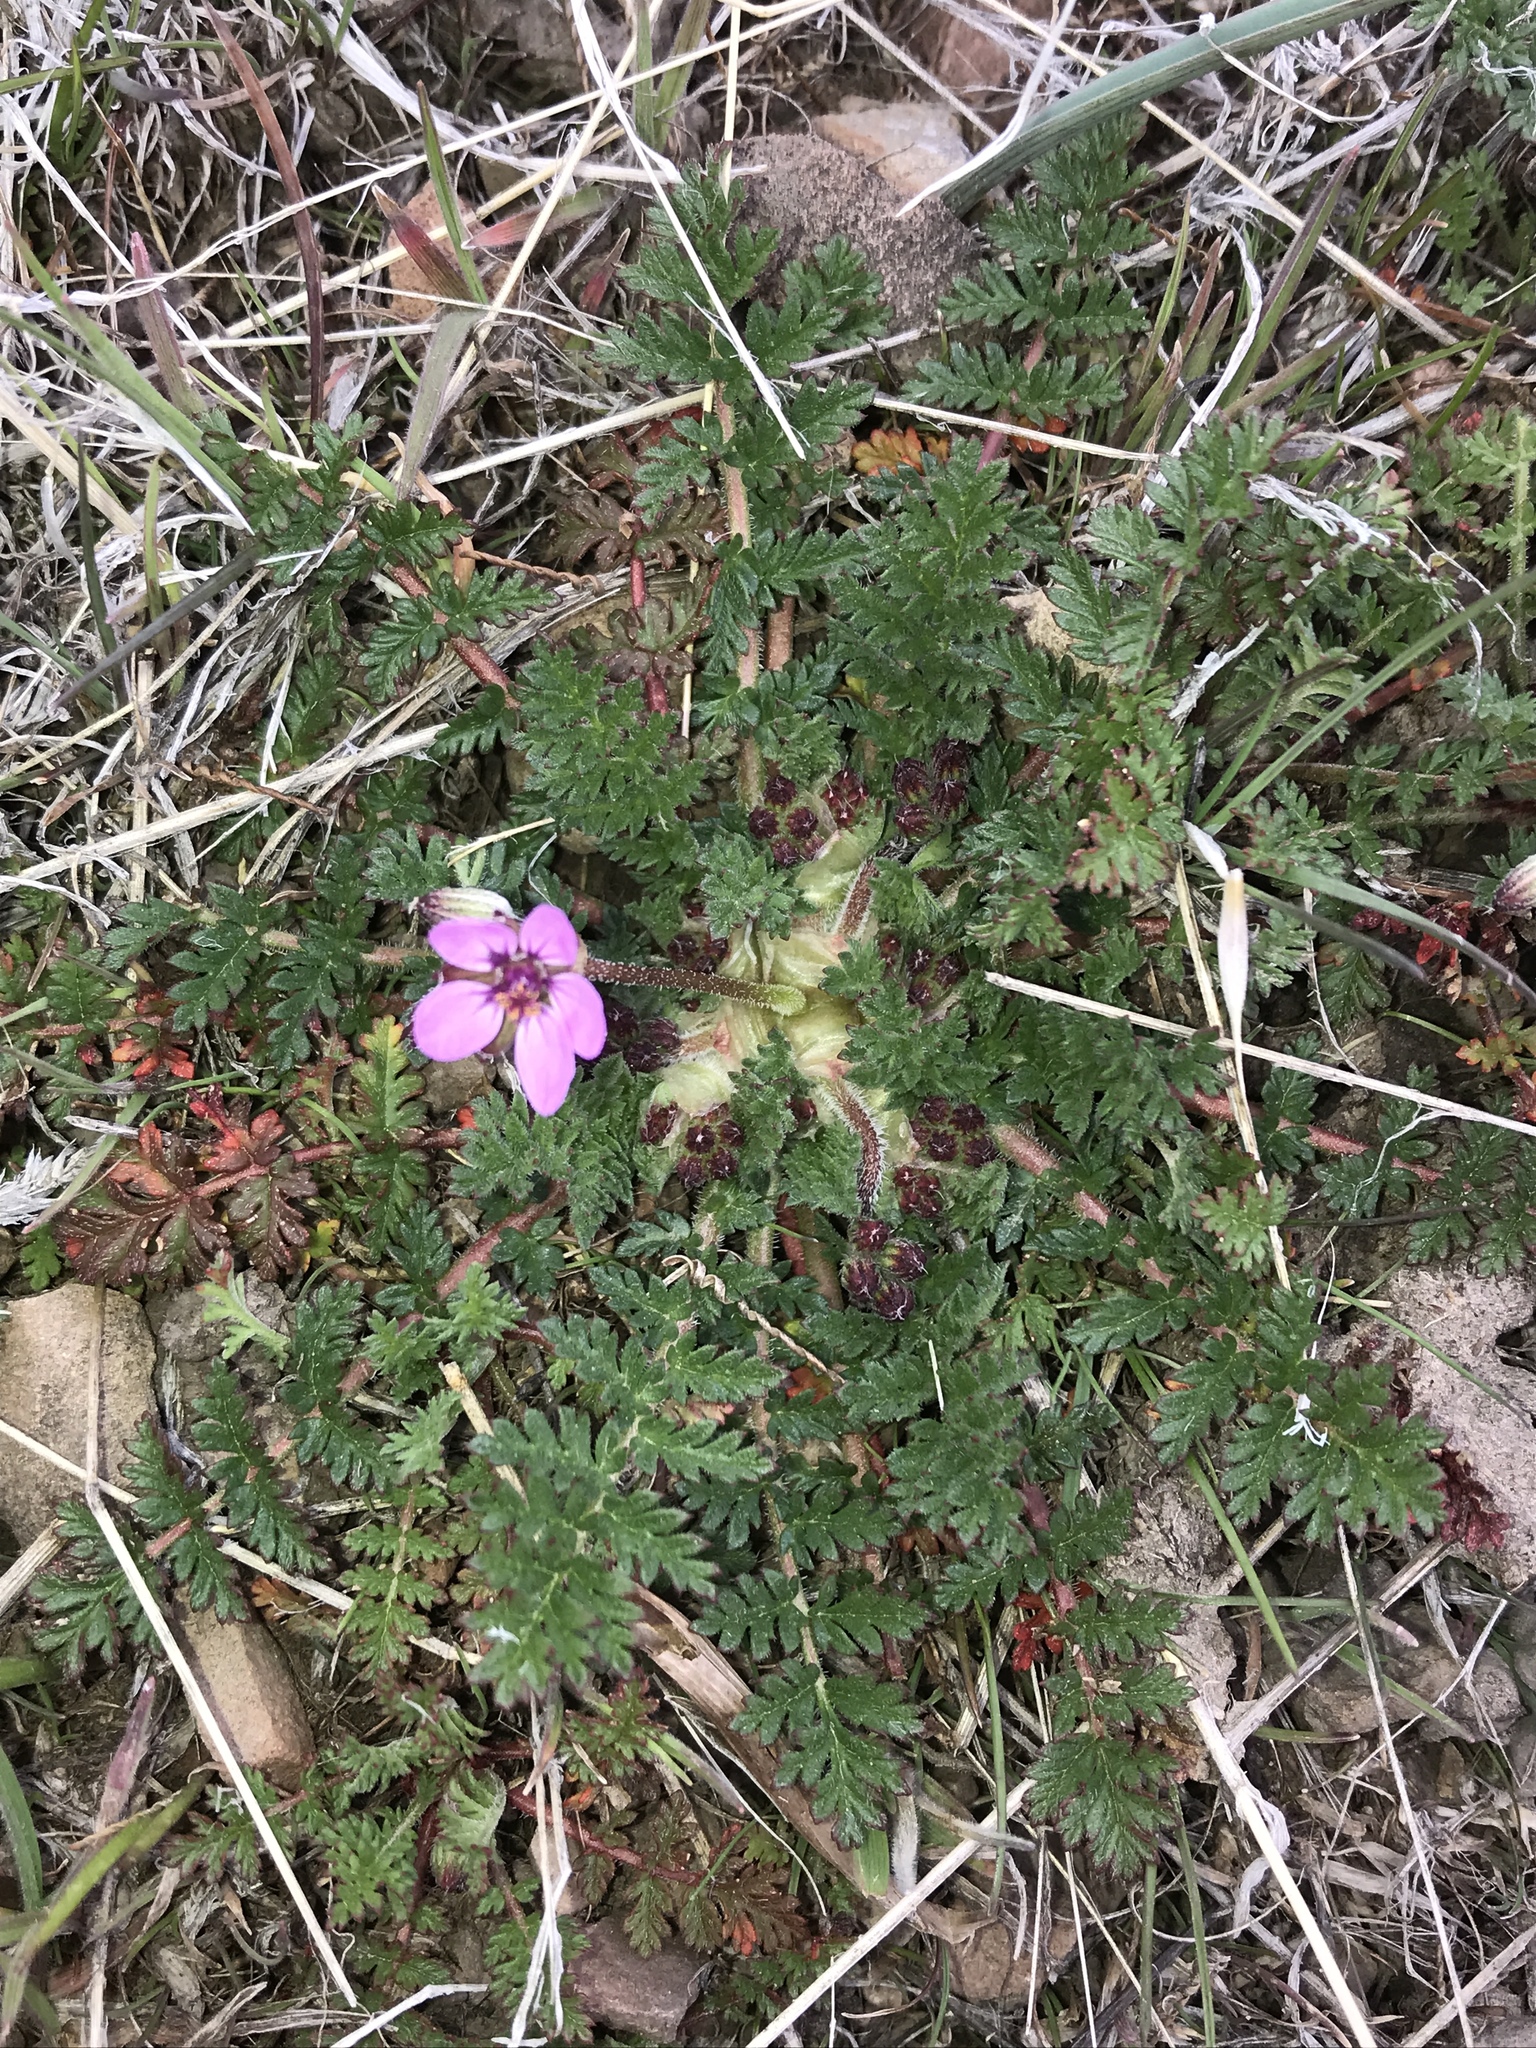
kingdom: Plantae
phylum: Tracheophyta
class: Magnoliopsida
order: Geraniales
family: Geraniaceae
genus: Erodium
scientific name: Erodium cicutarium
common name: Common stork's-bill
